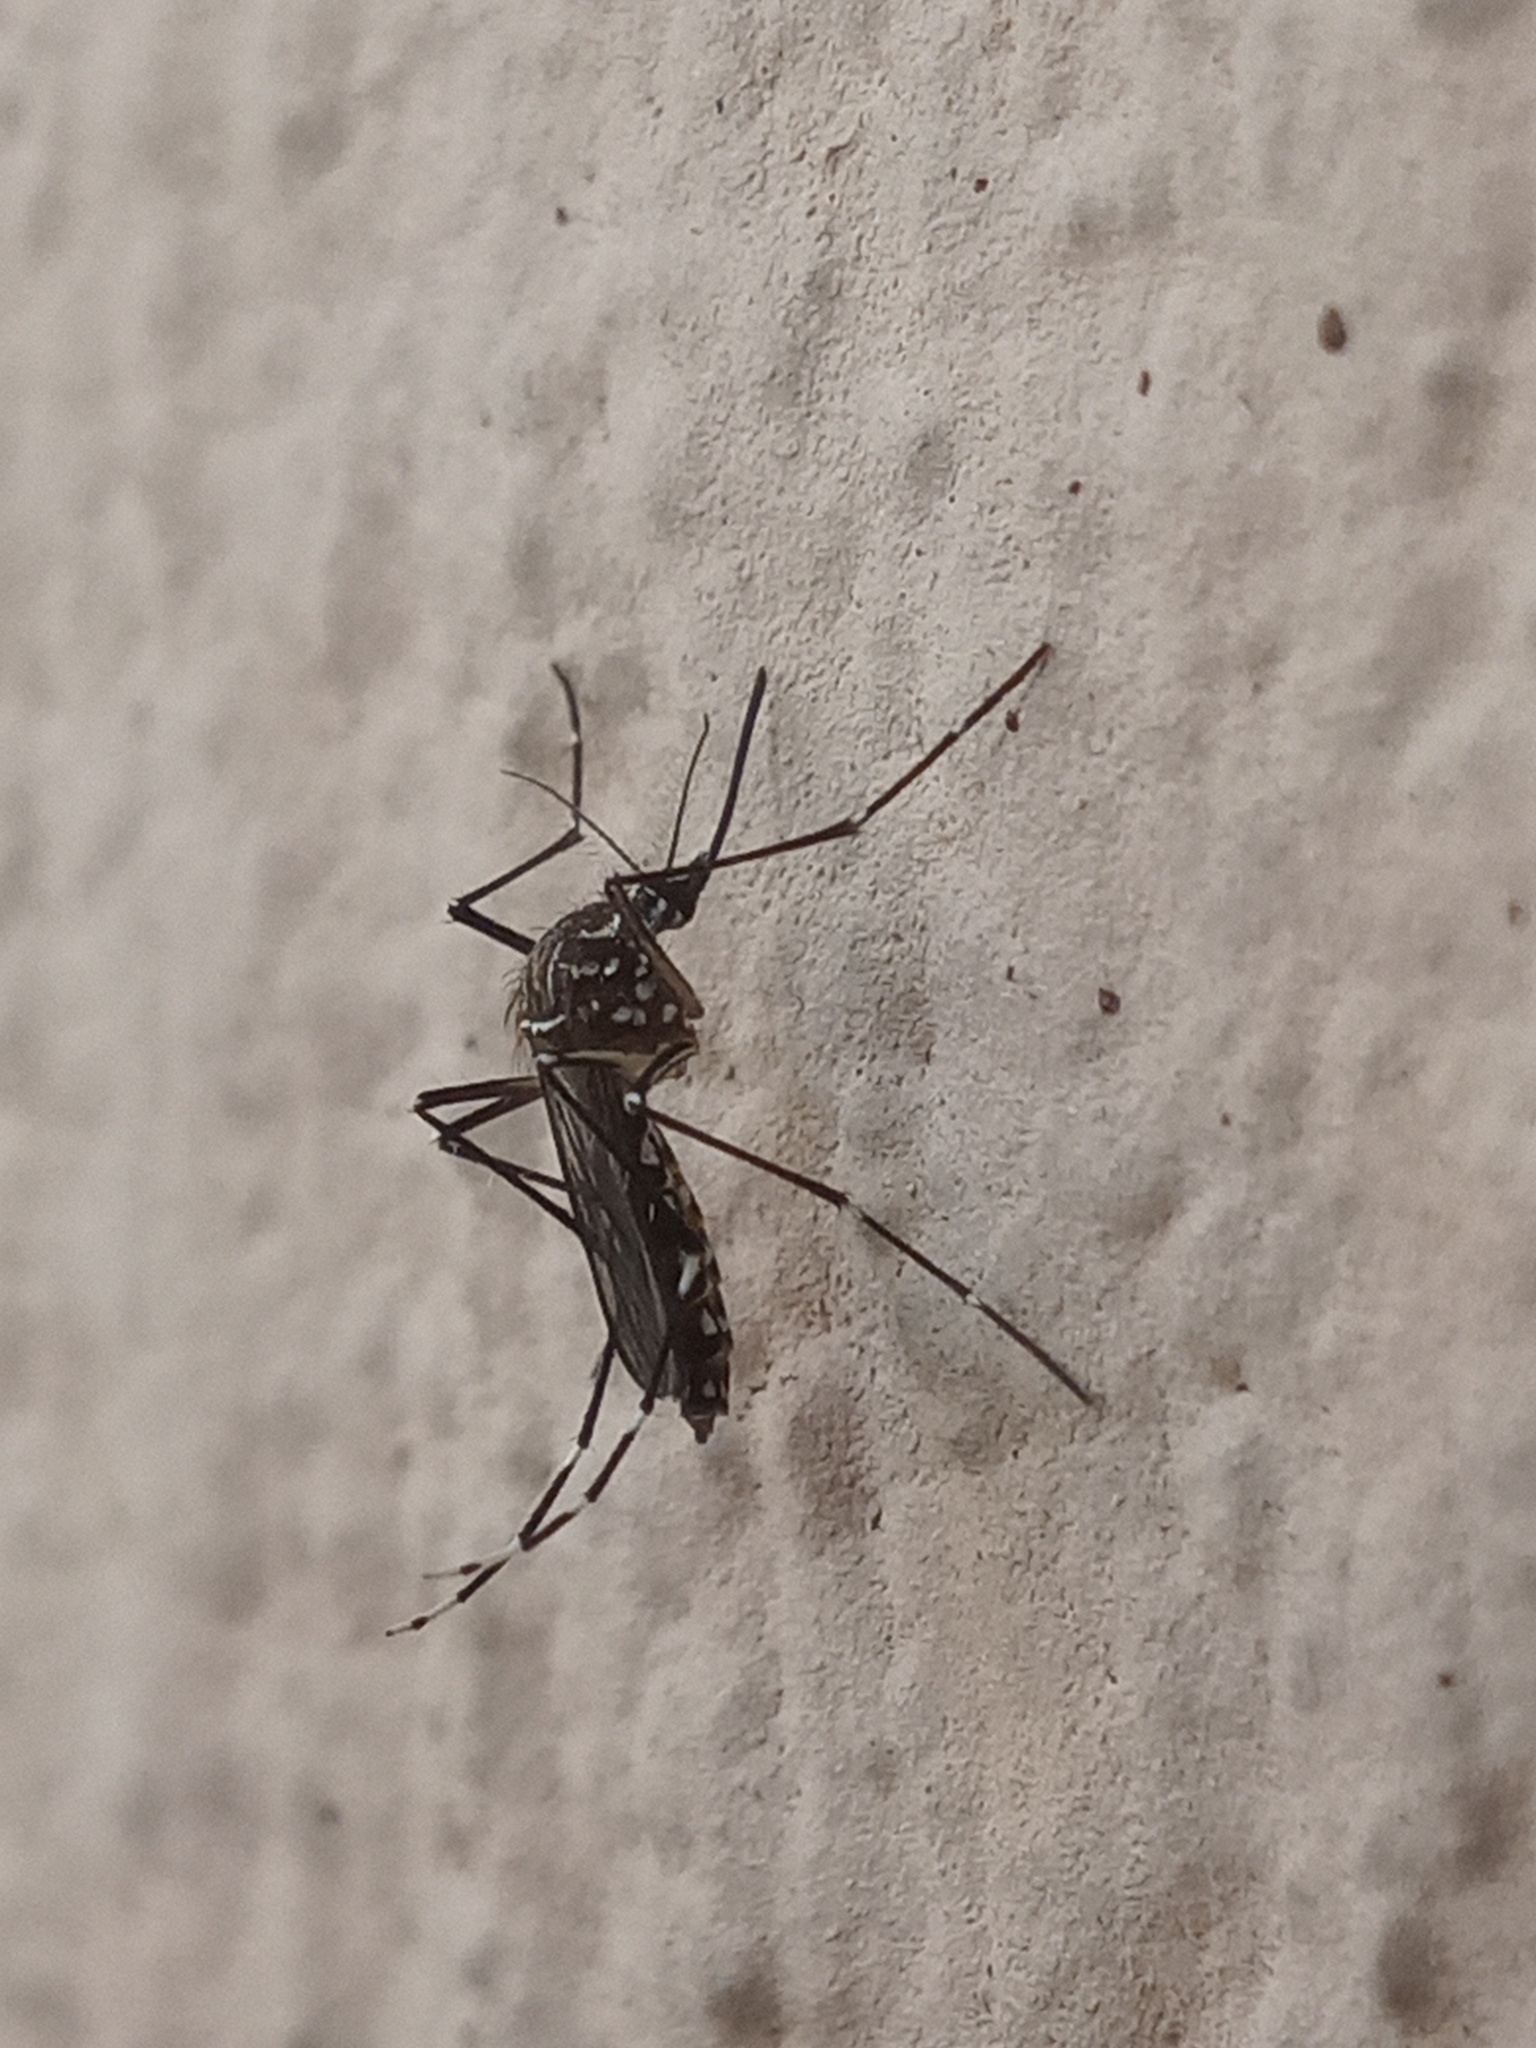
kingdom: Animalia
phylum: Arthropoda
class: Insecta
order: Diptera
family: Culicidae
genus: Aedes
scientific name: Aedes aegypti
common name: Yellow fever mosquito
